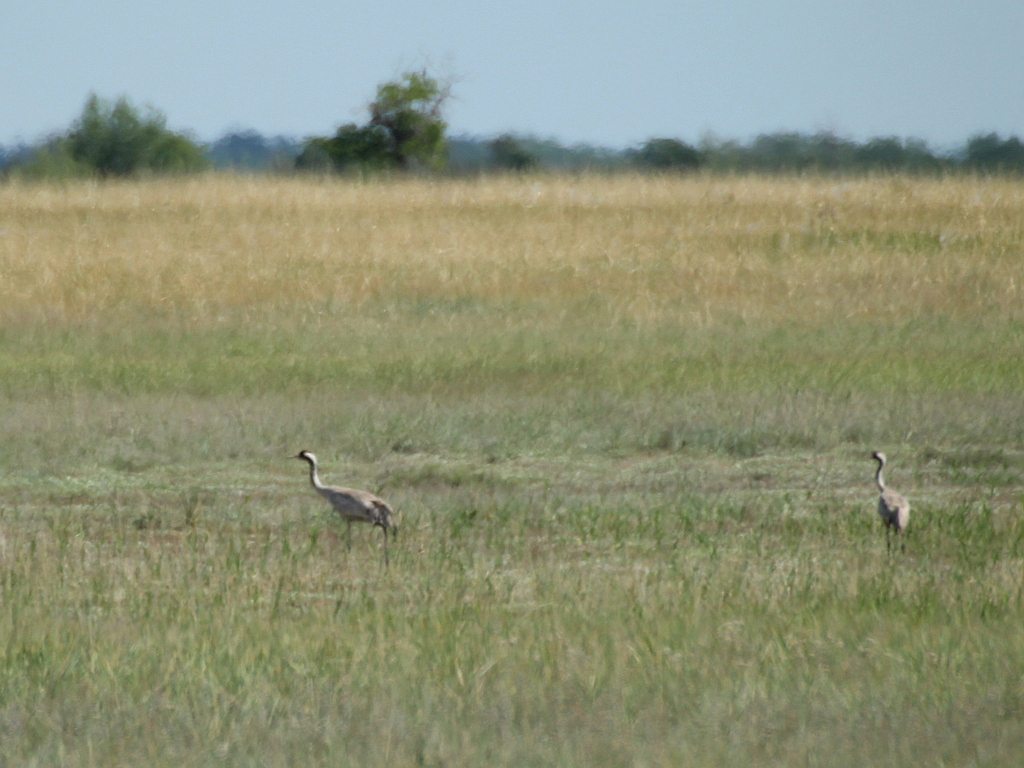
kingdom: Animalia
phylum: Chordata
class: Aves
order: Gruiformes
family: Gruidae
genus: Grus
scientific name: Grus grus
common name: Common crane
